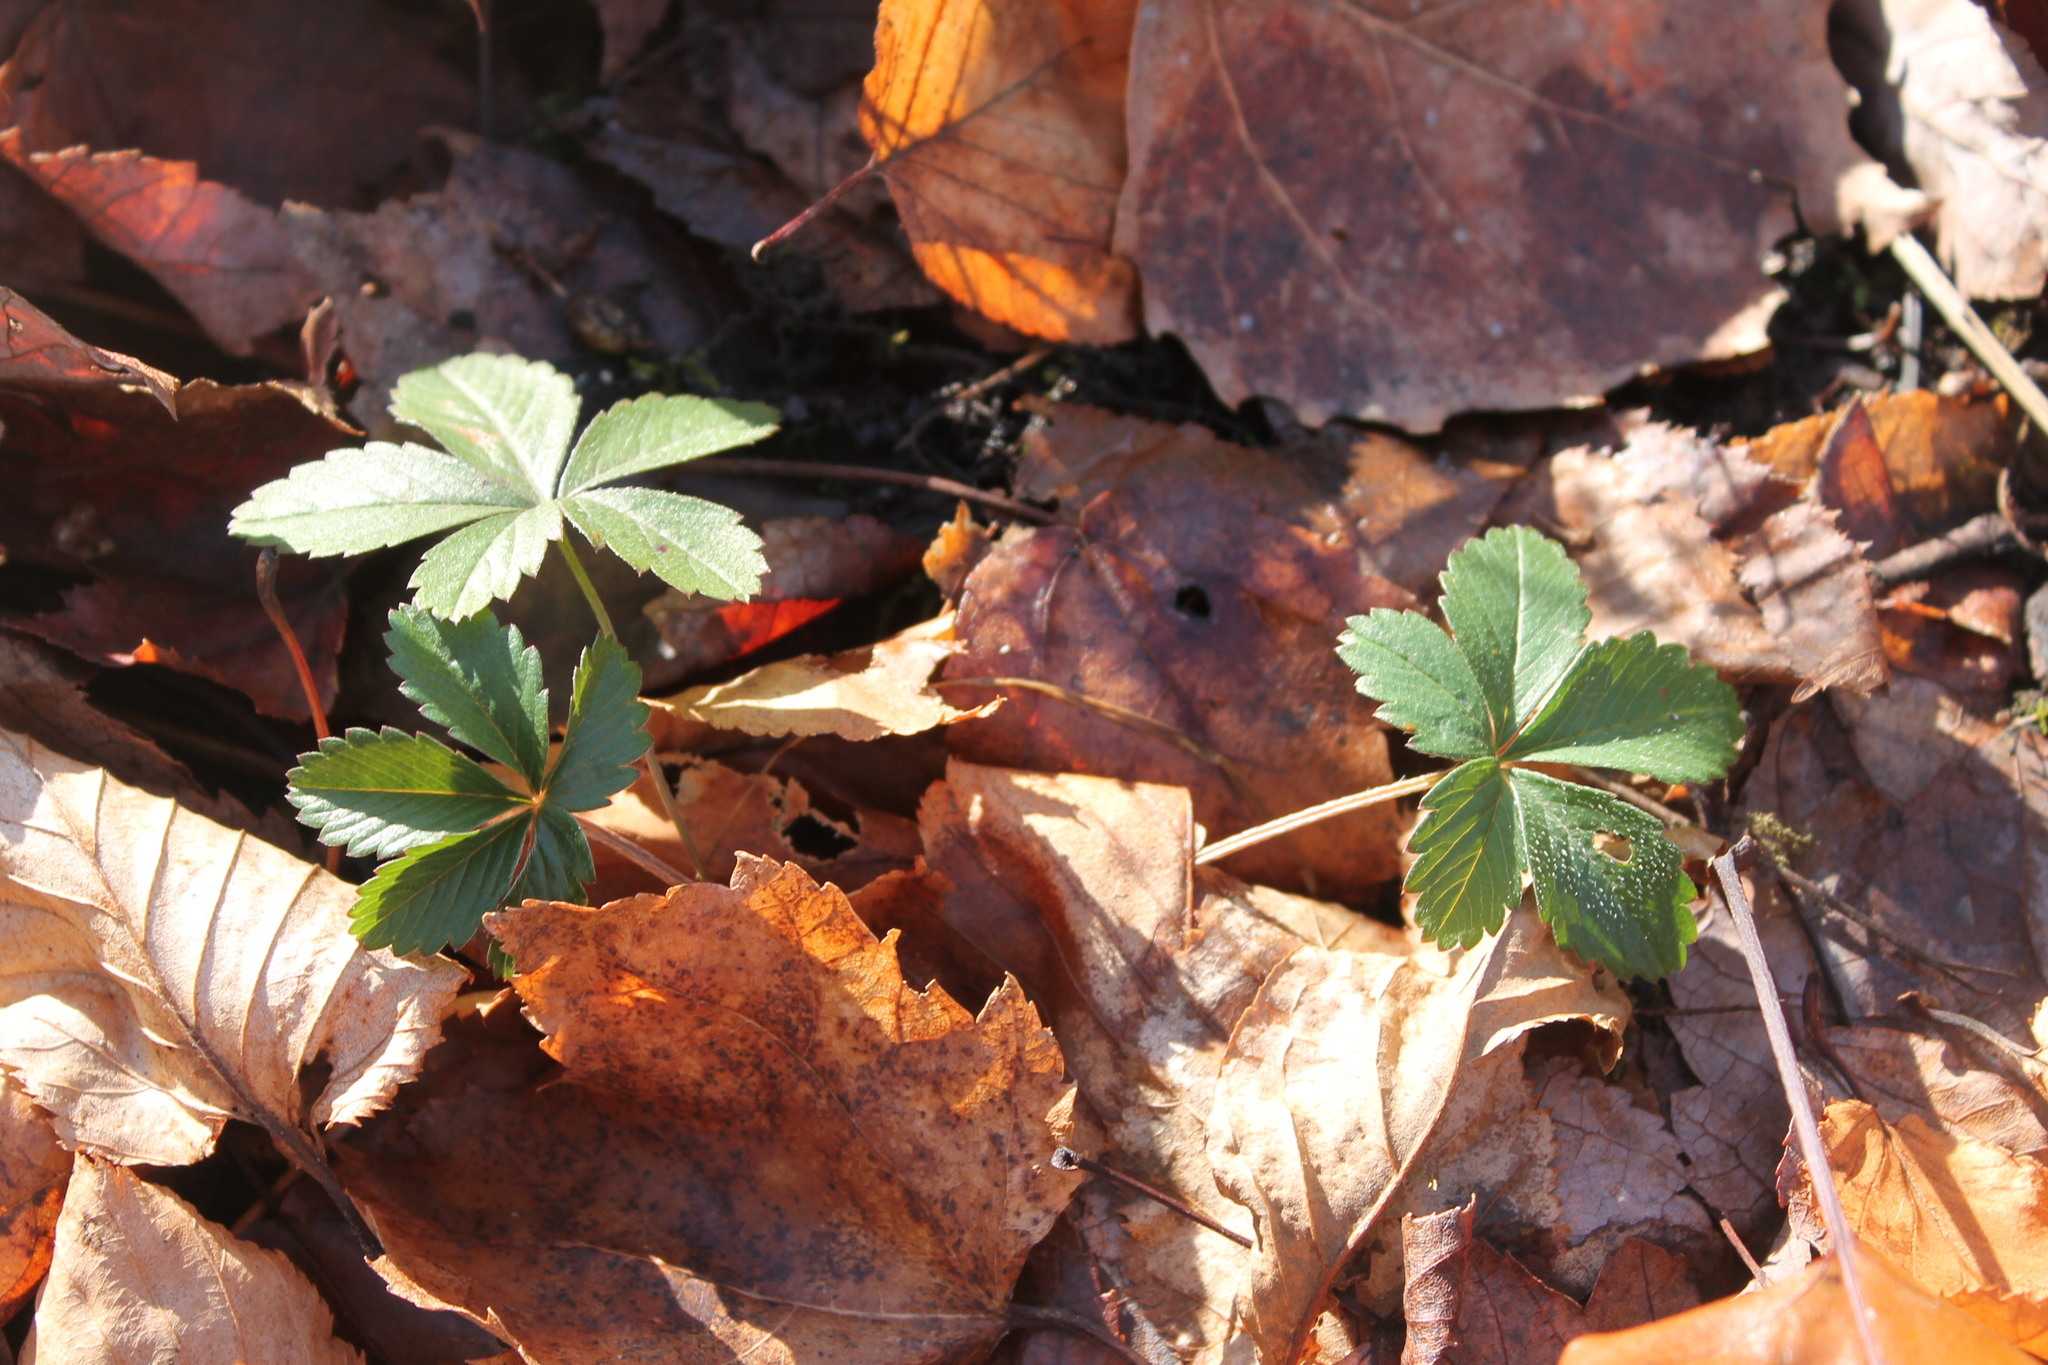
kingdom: Plantae
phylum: Tracheophyta
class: Magnoliopsida
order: Rosales
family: Rosaceae
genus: Potentilla
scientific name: Potentilla canadensis
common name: Canada cinquefoil
